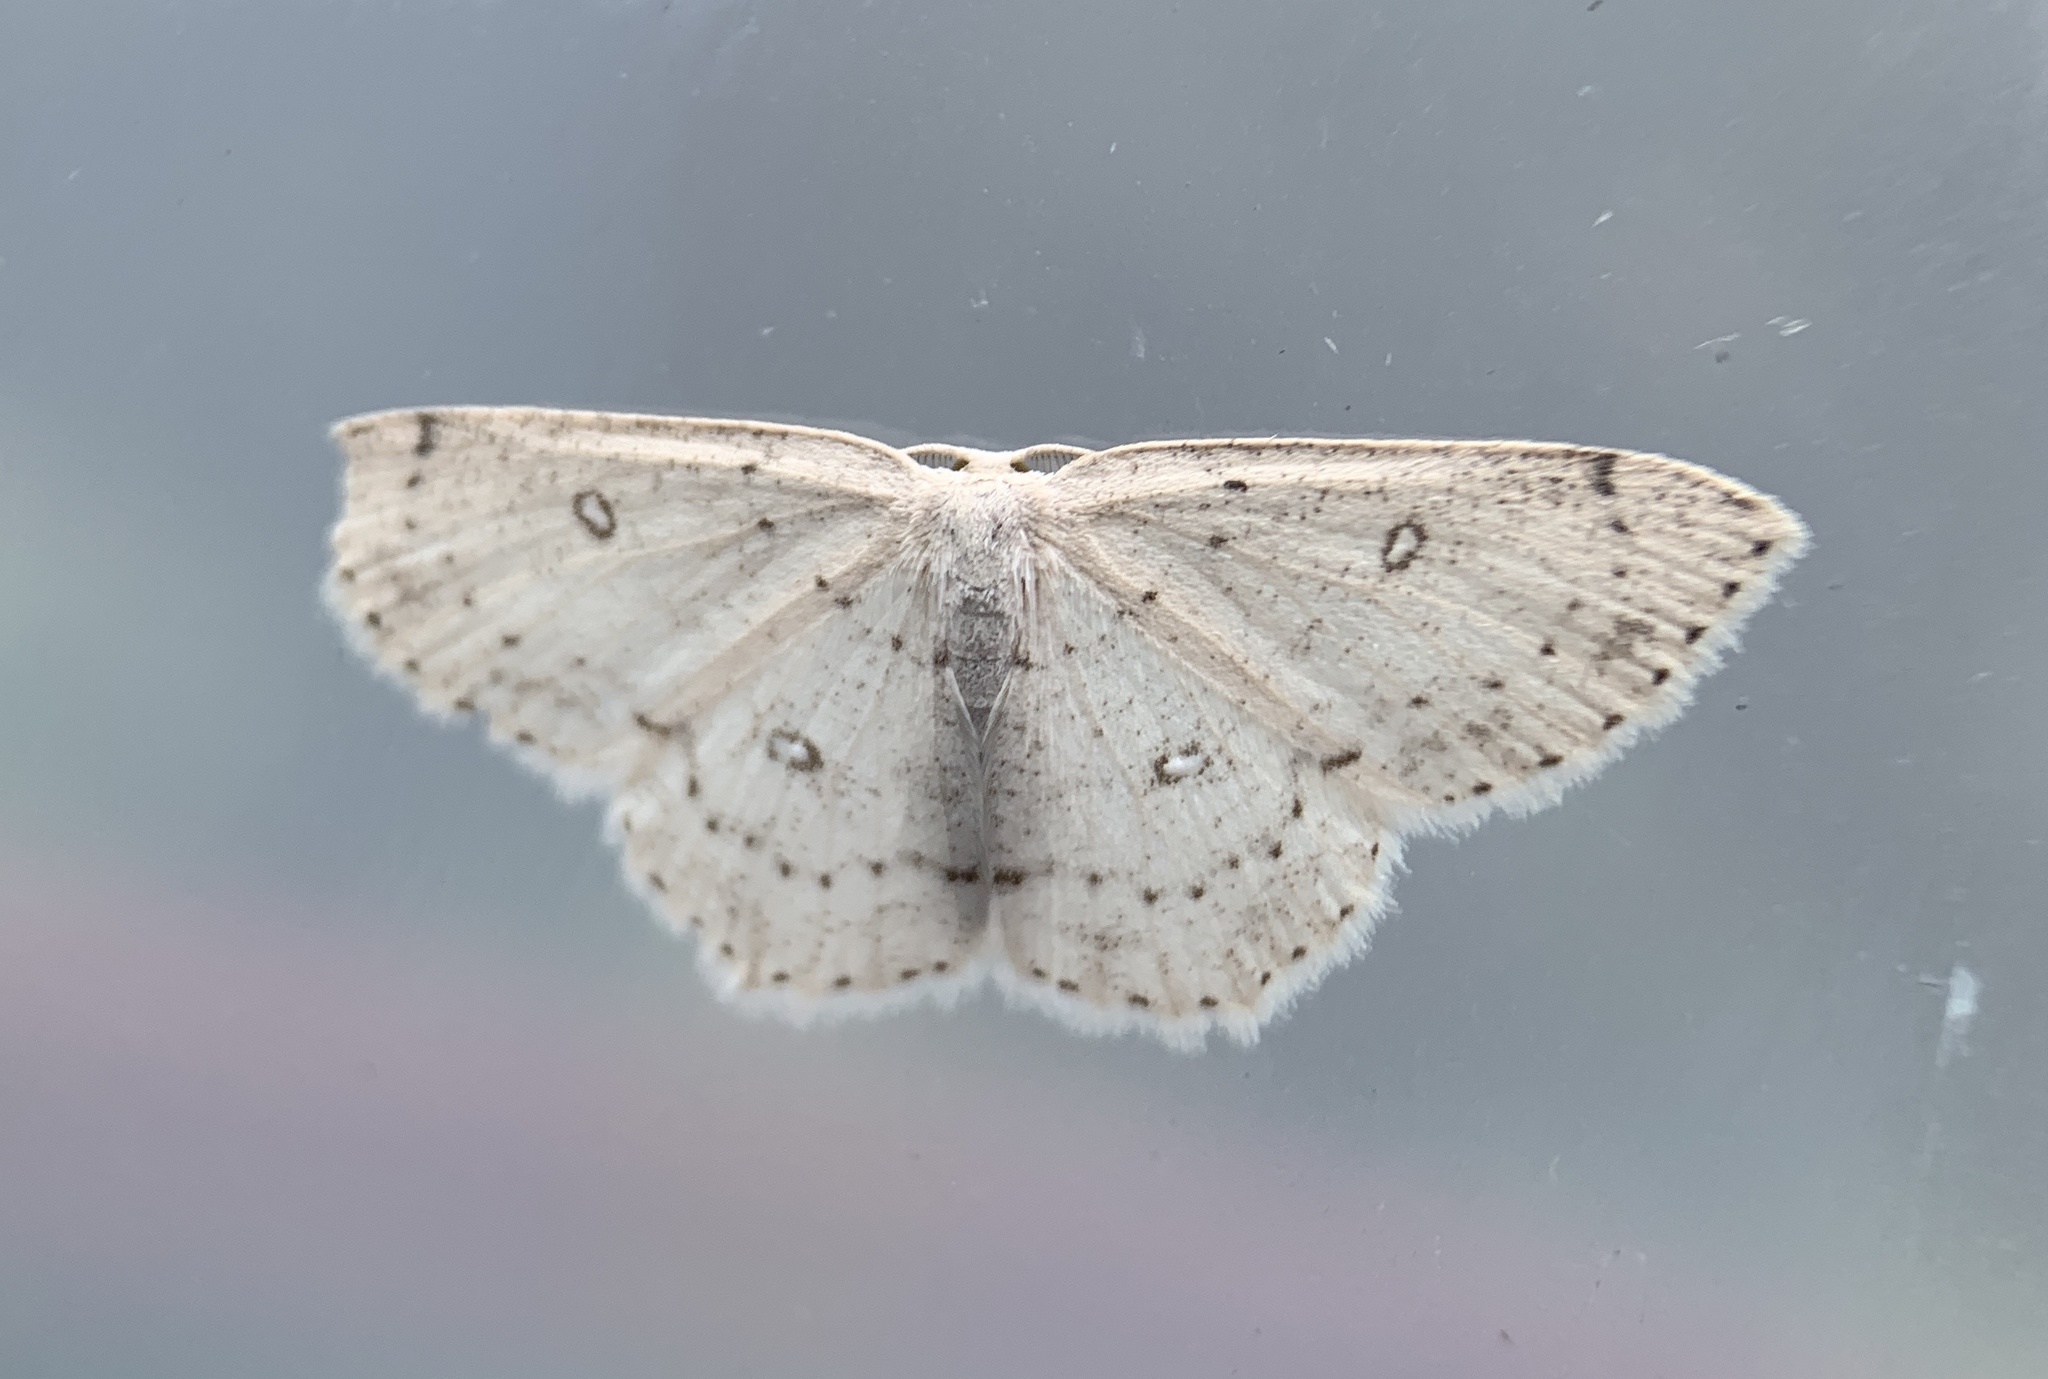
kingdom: Animalia
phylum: Arthropoda
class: Insecta
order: Lepidoptera
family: Geometridae
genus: Cyclophora
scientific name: Cyclophora pendulinaria
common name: Sweet fern geometer
